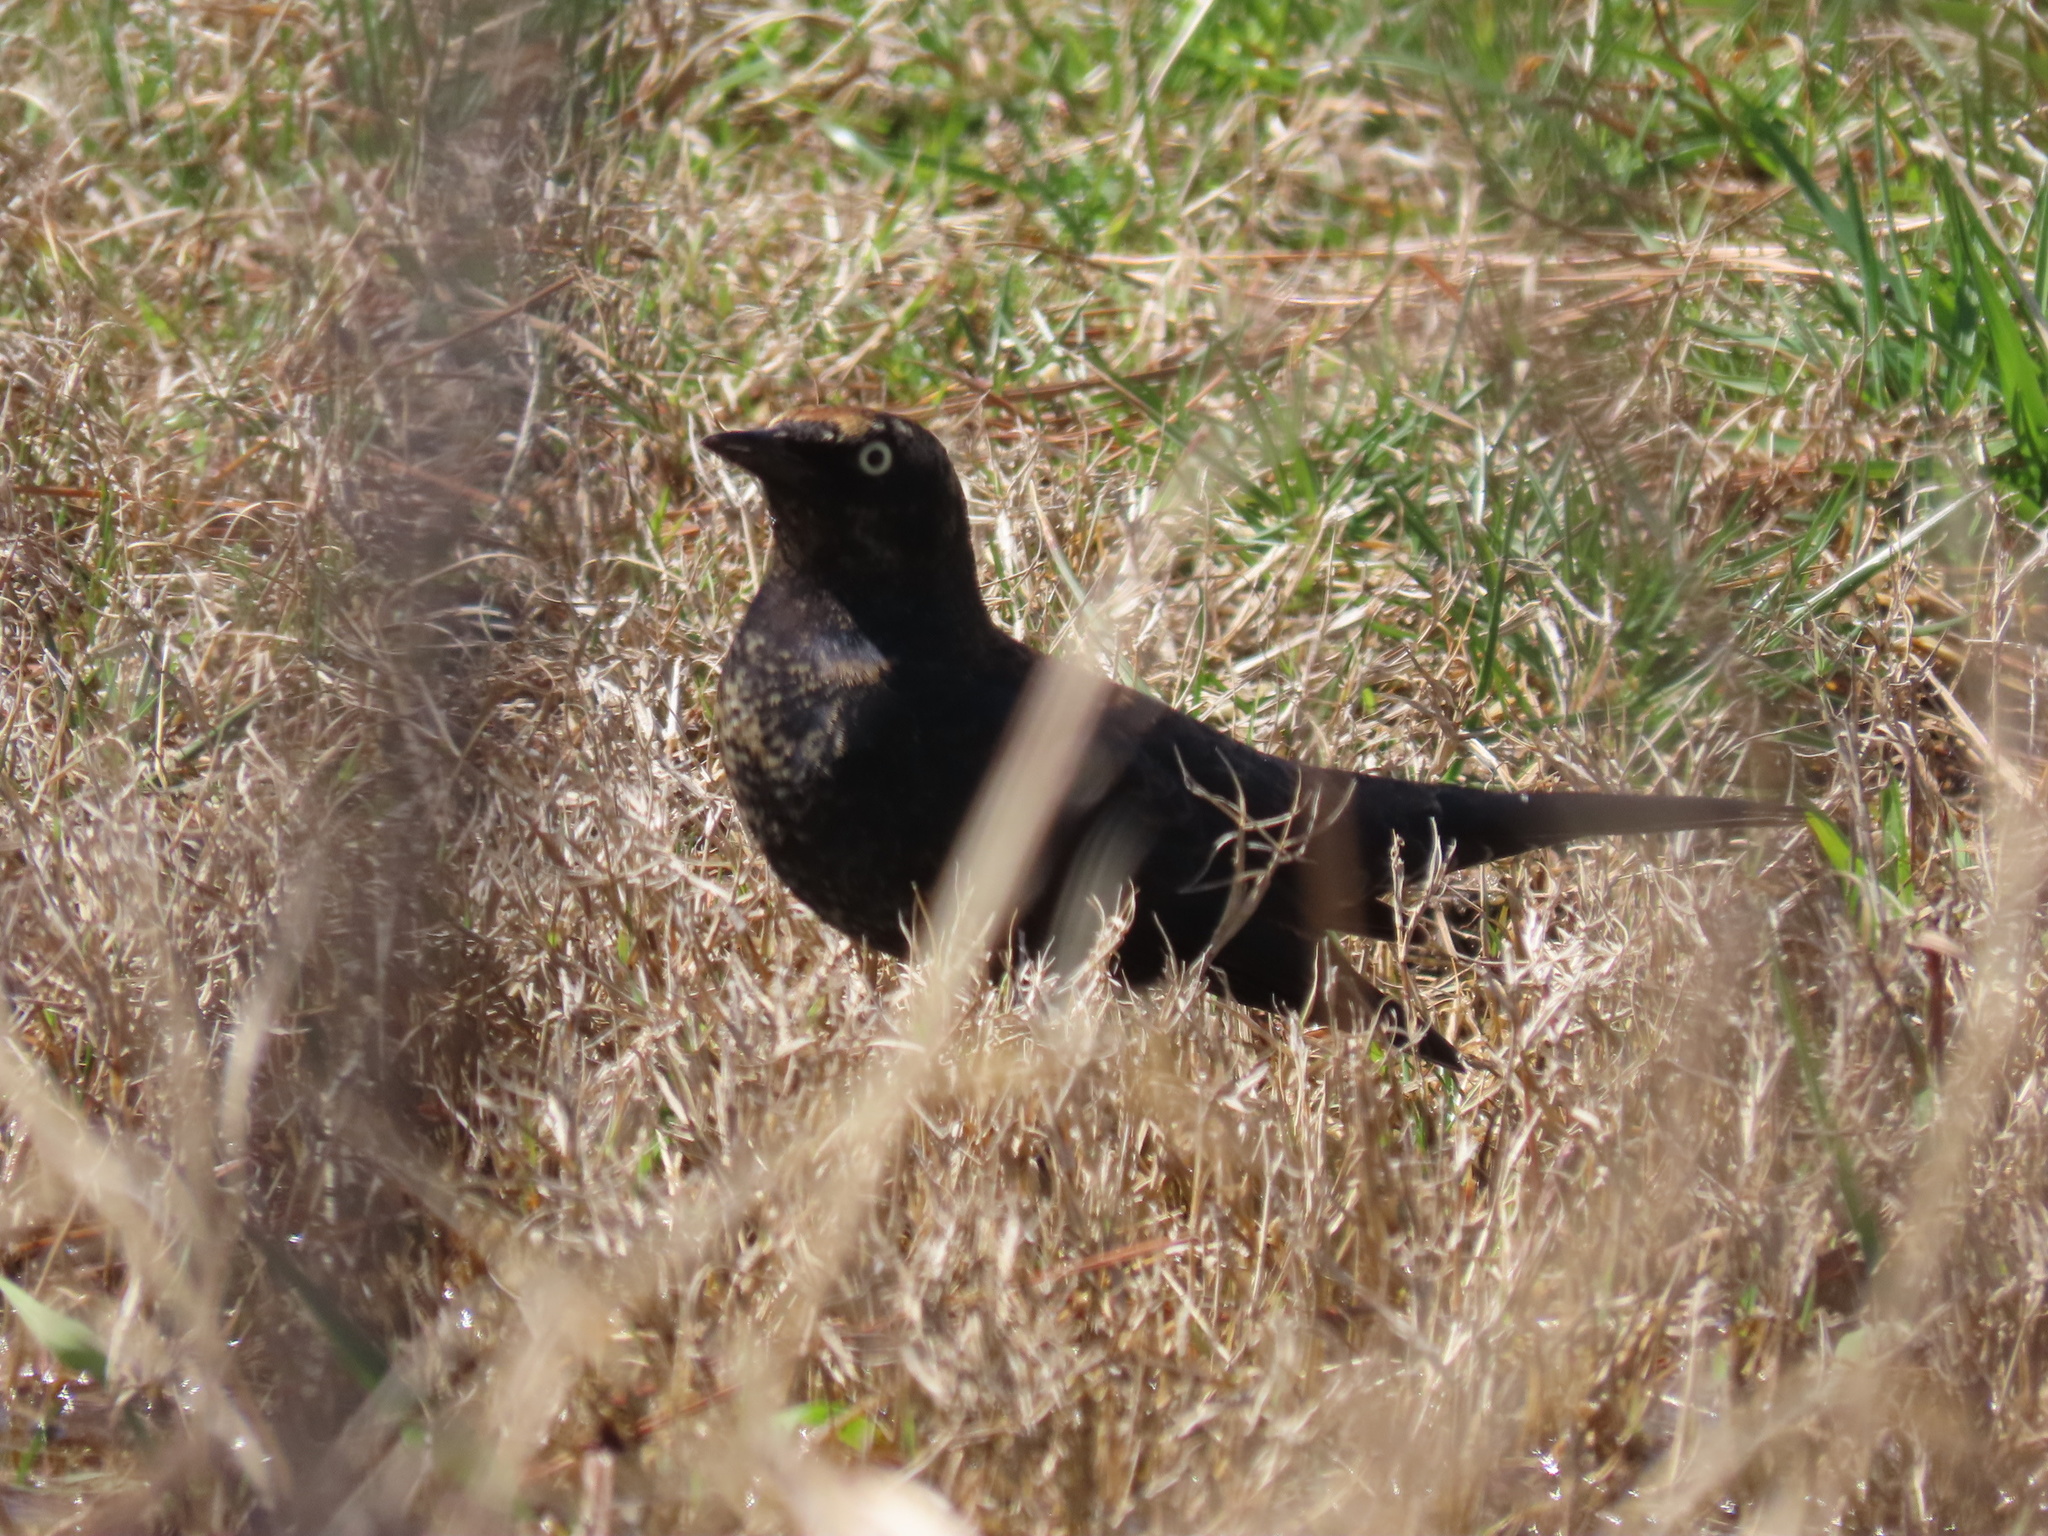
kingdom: Animalia
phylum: Chordata
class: Aves
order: Passeriformes
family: Icteridae
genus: Euphagus
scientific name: Euphagus carolinus
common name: Rusty blackbird
